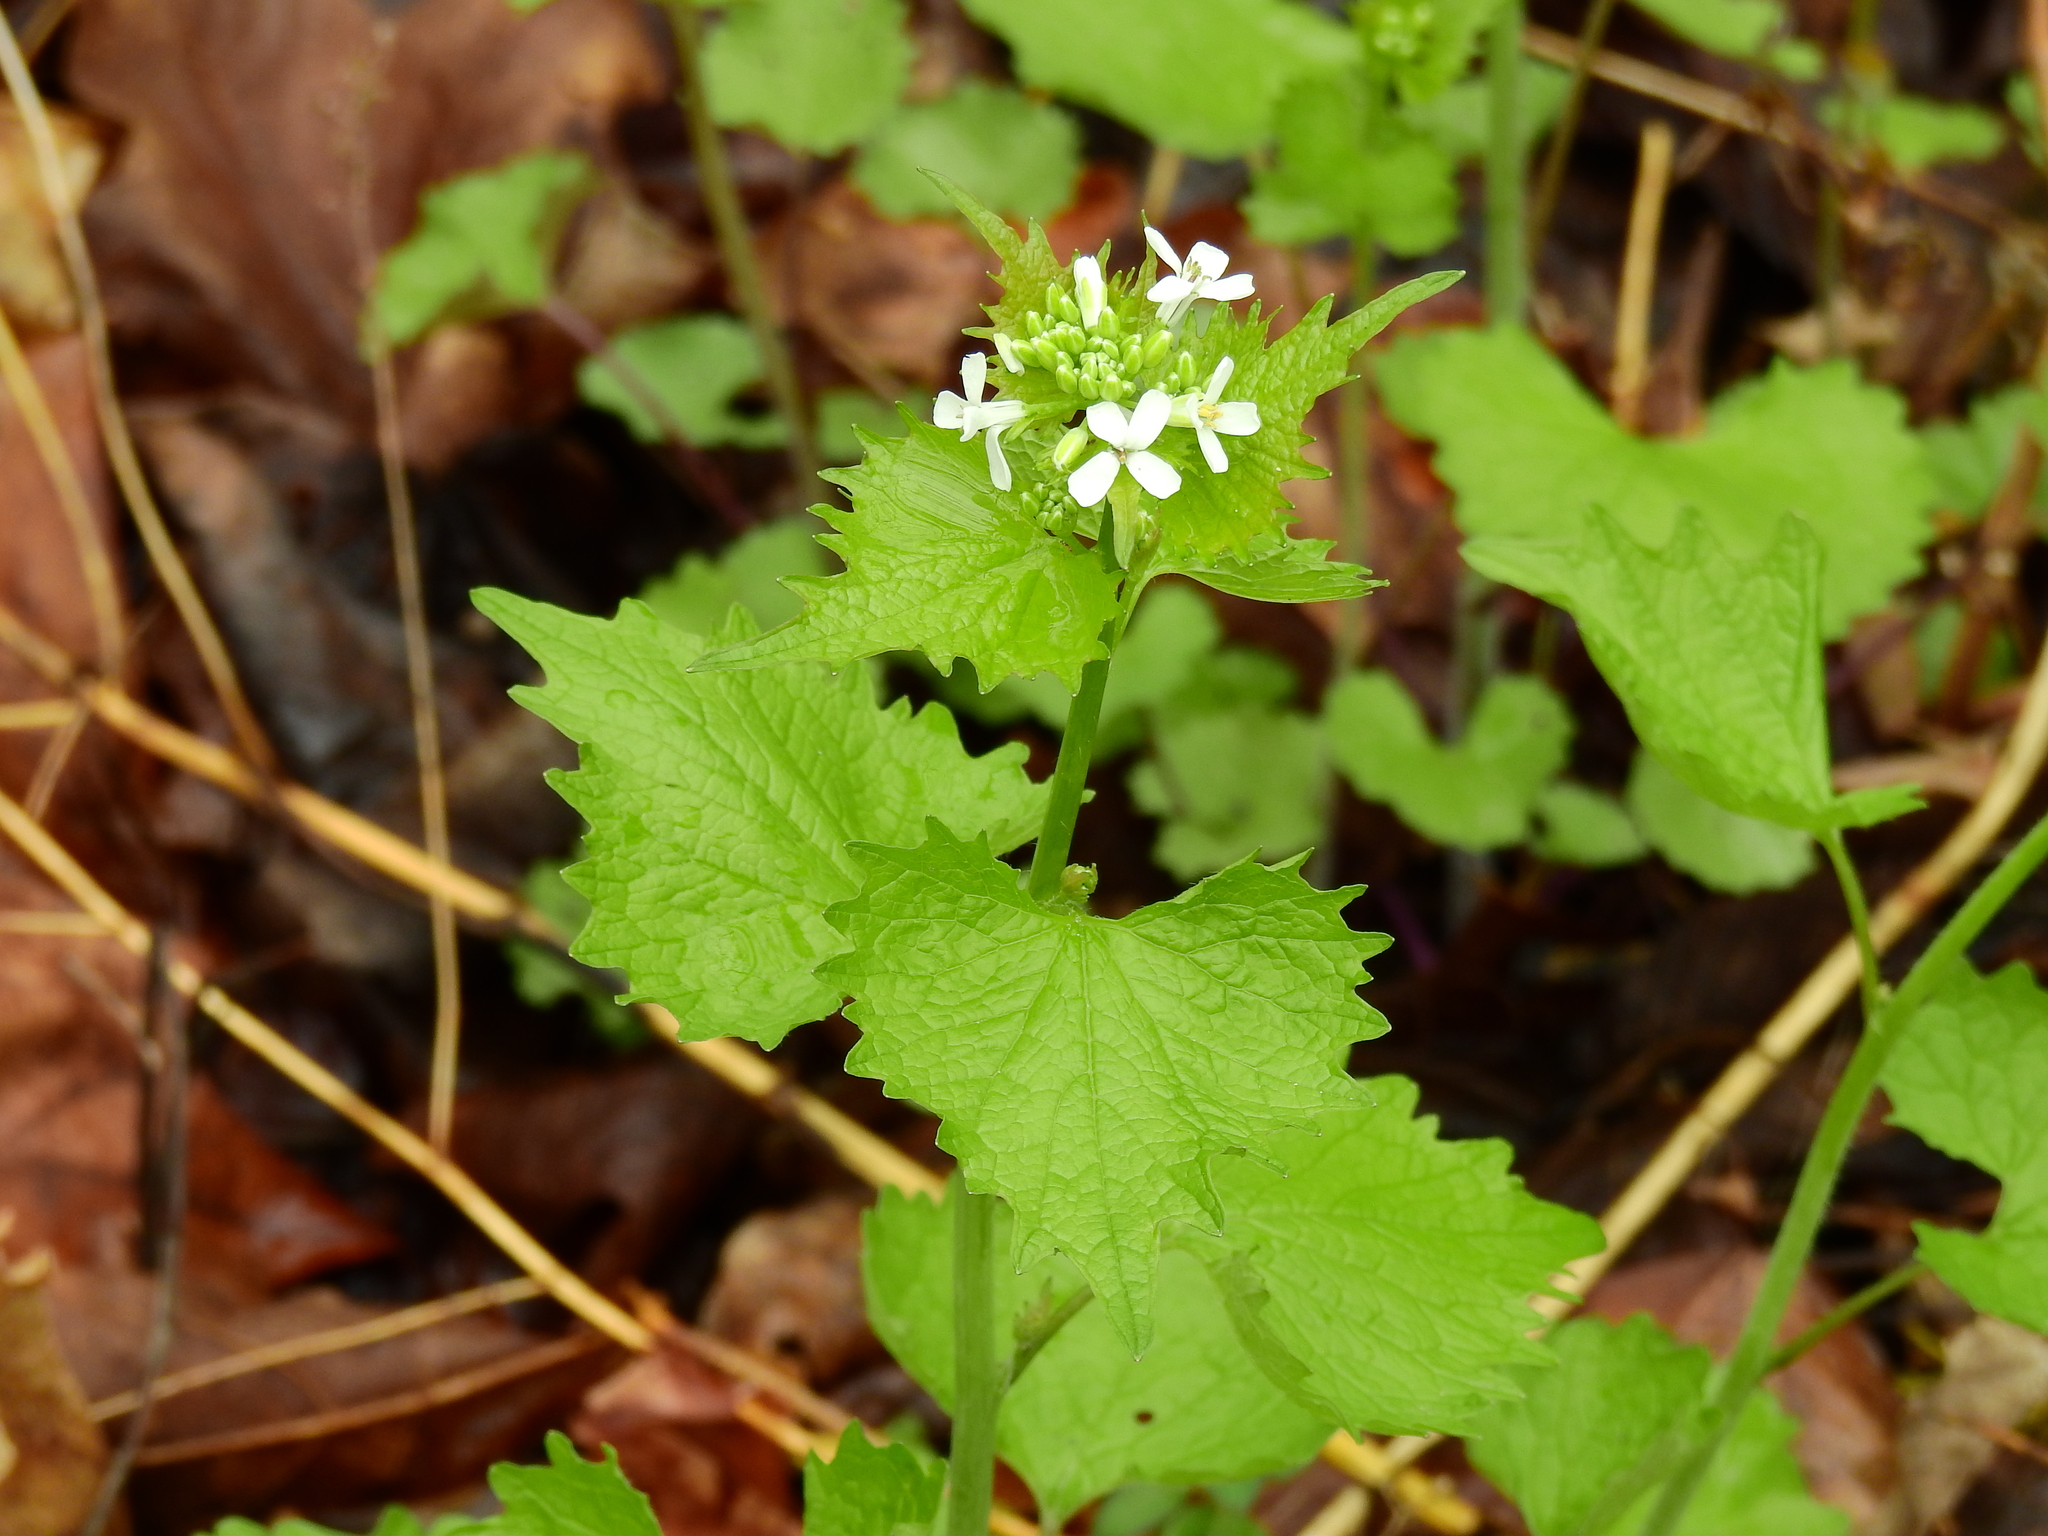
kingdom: Plantae
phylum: Tracheophyta
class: Magnoliopsida
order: Brassicales
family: Brassicaceae
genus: Alliaria
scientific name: Alliaria petiolata
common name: Garlic mustard
